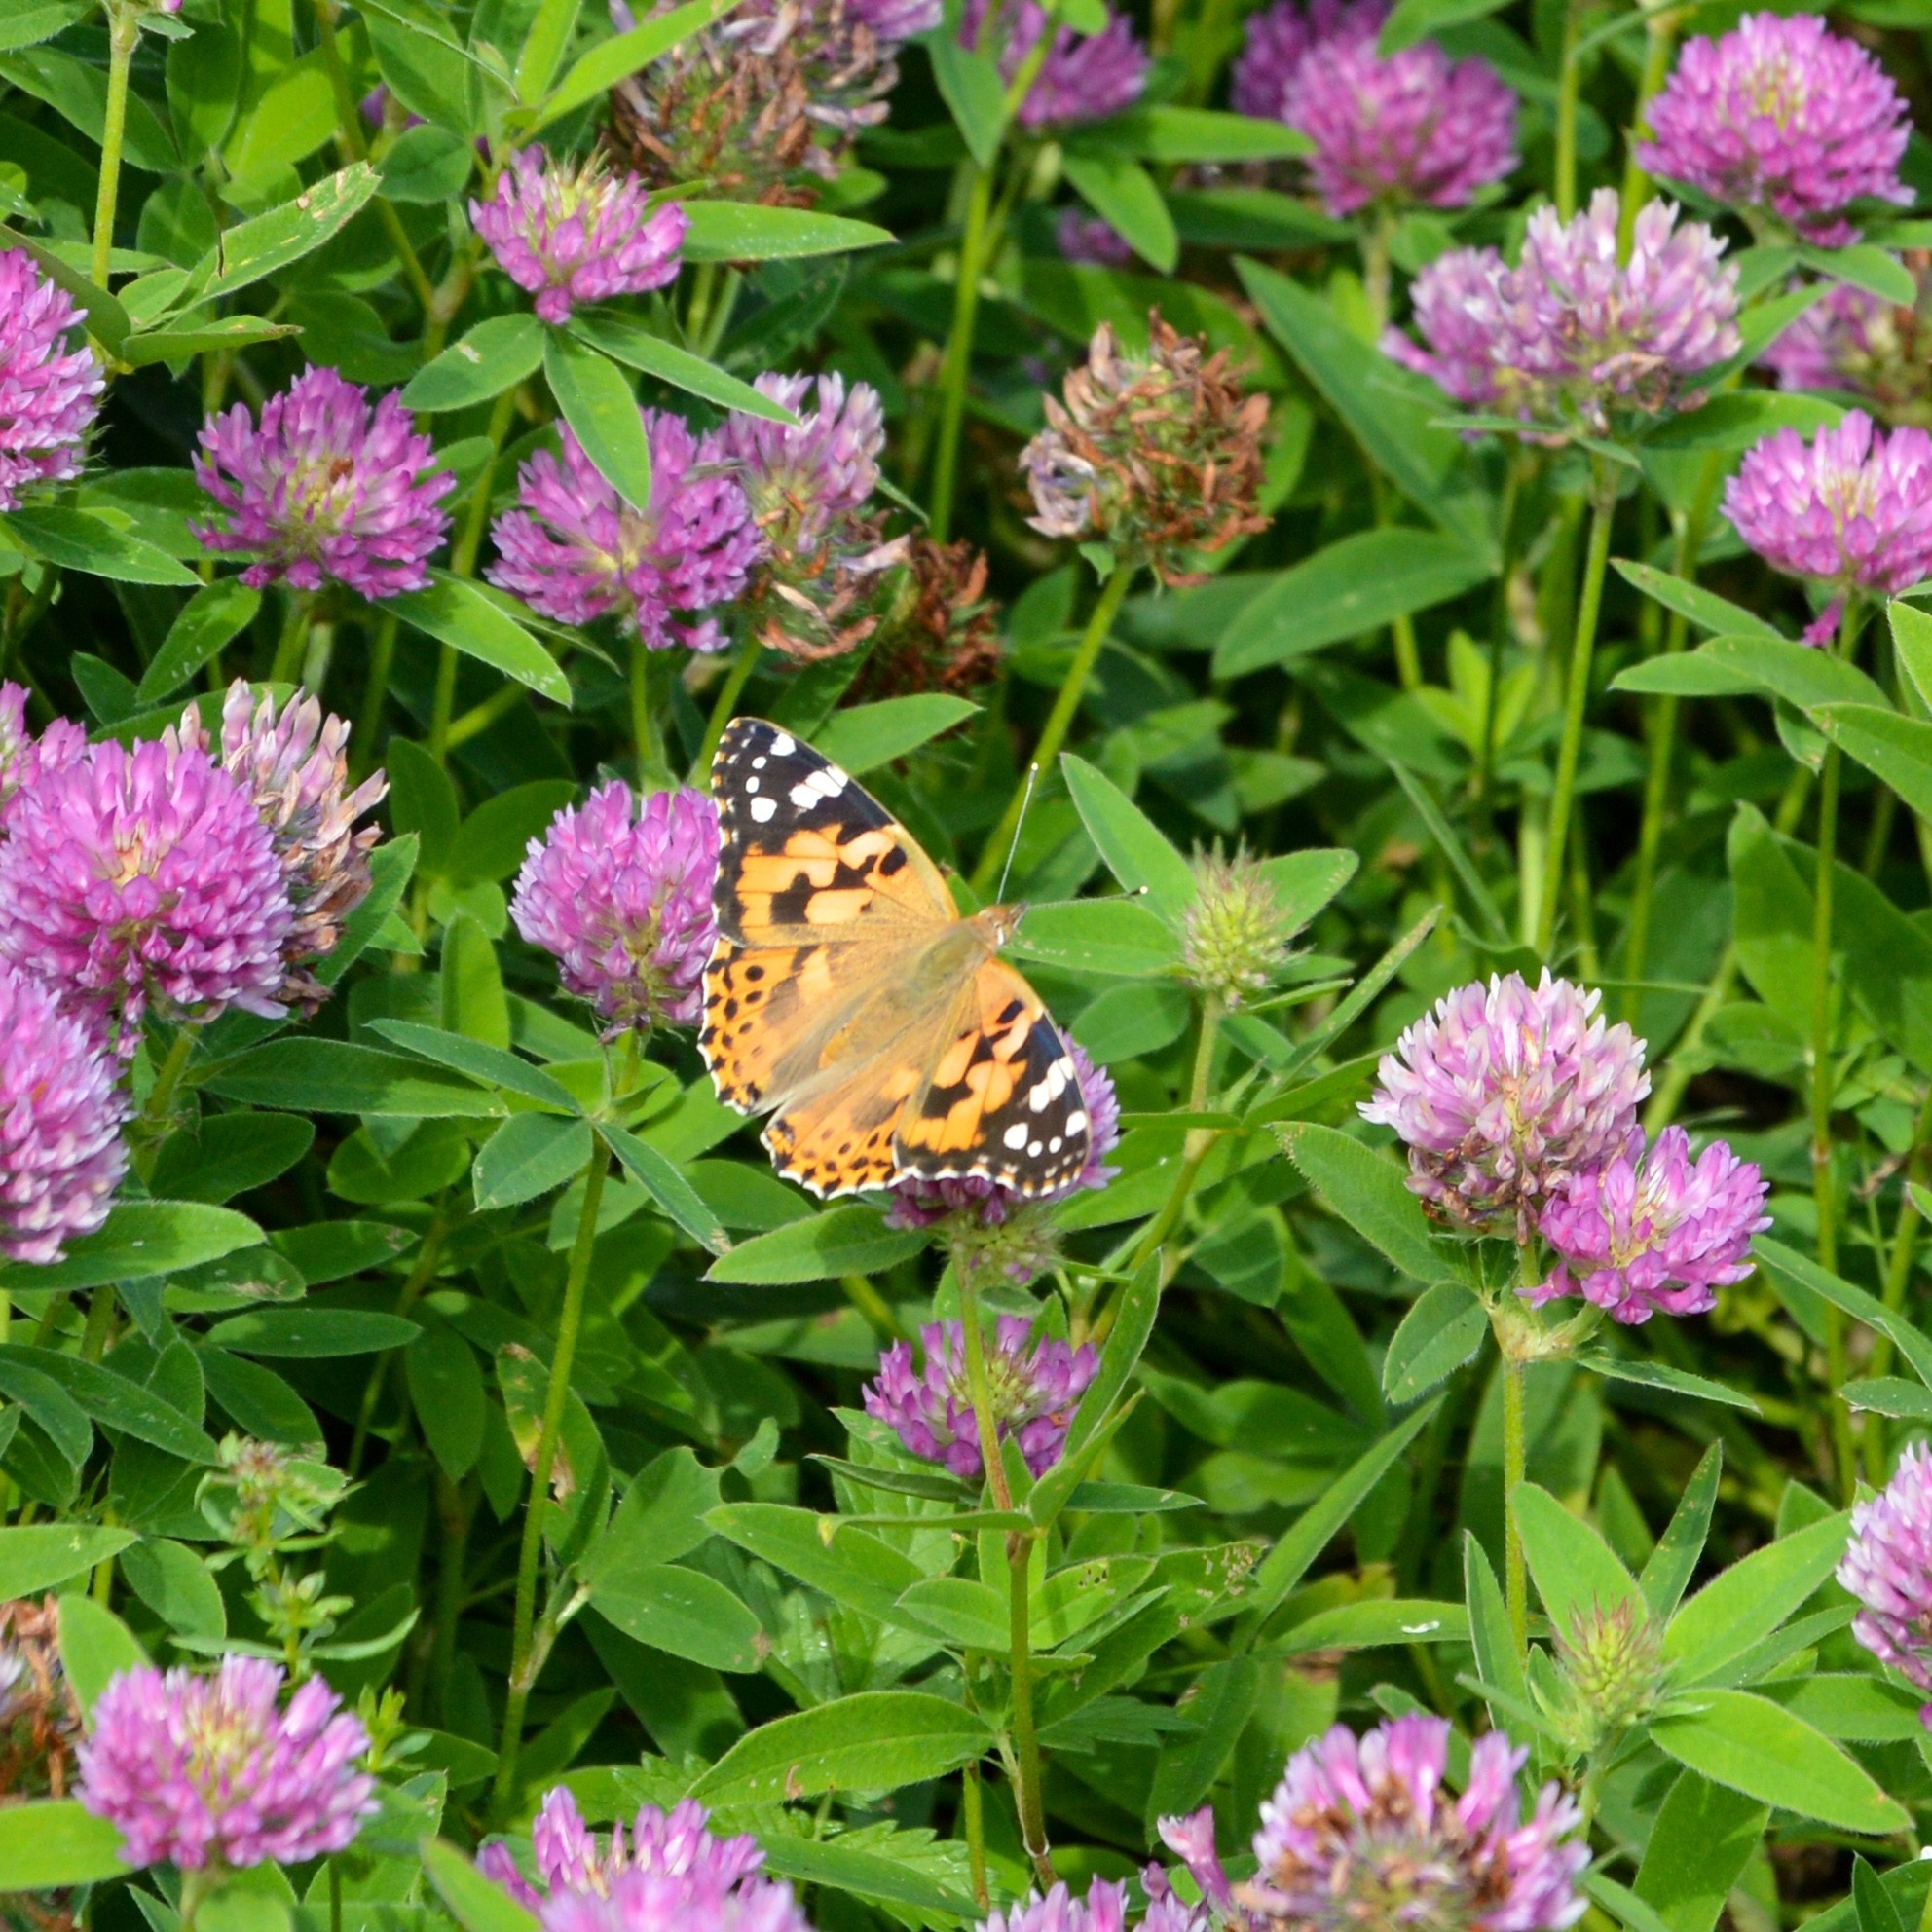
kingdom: Animalia
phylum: Arthropoda
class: Insecta
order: Lepidoptera
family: Nymphalidae
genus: Vanessa
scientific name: Vanessa cardui
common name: Painted lady
